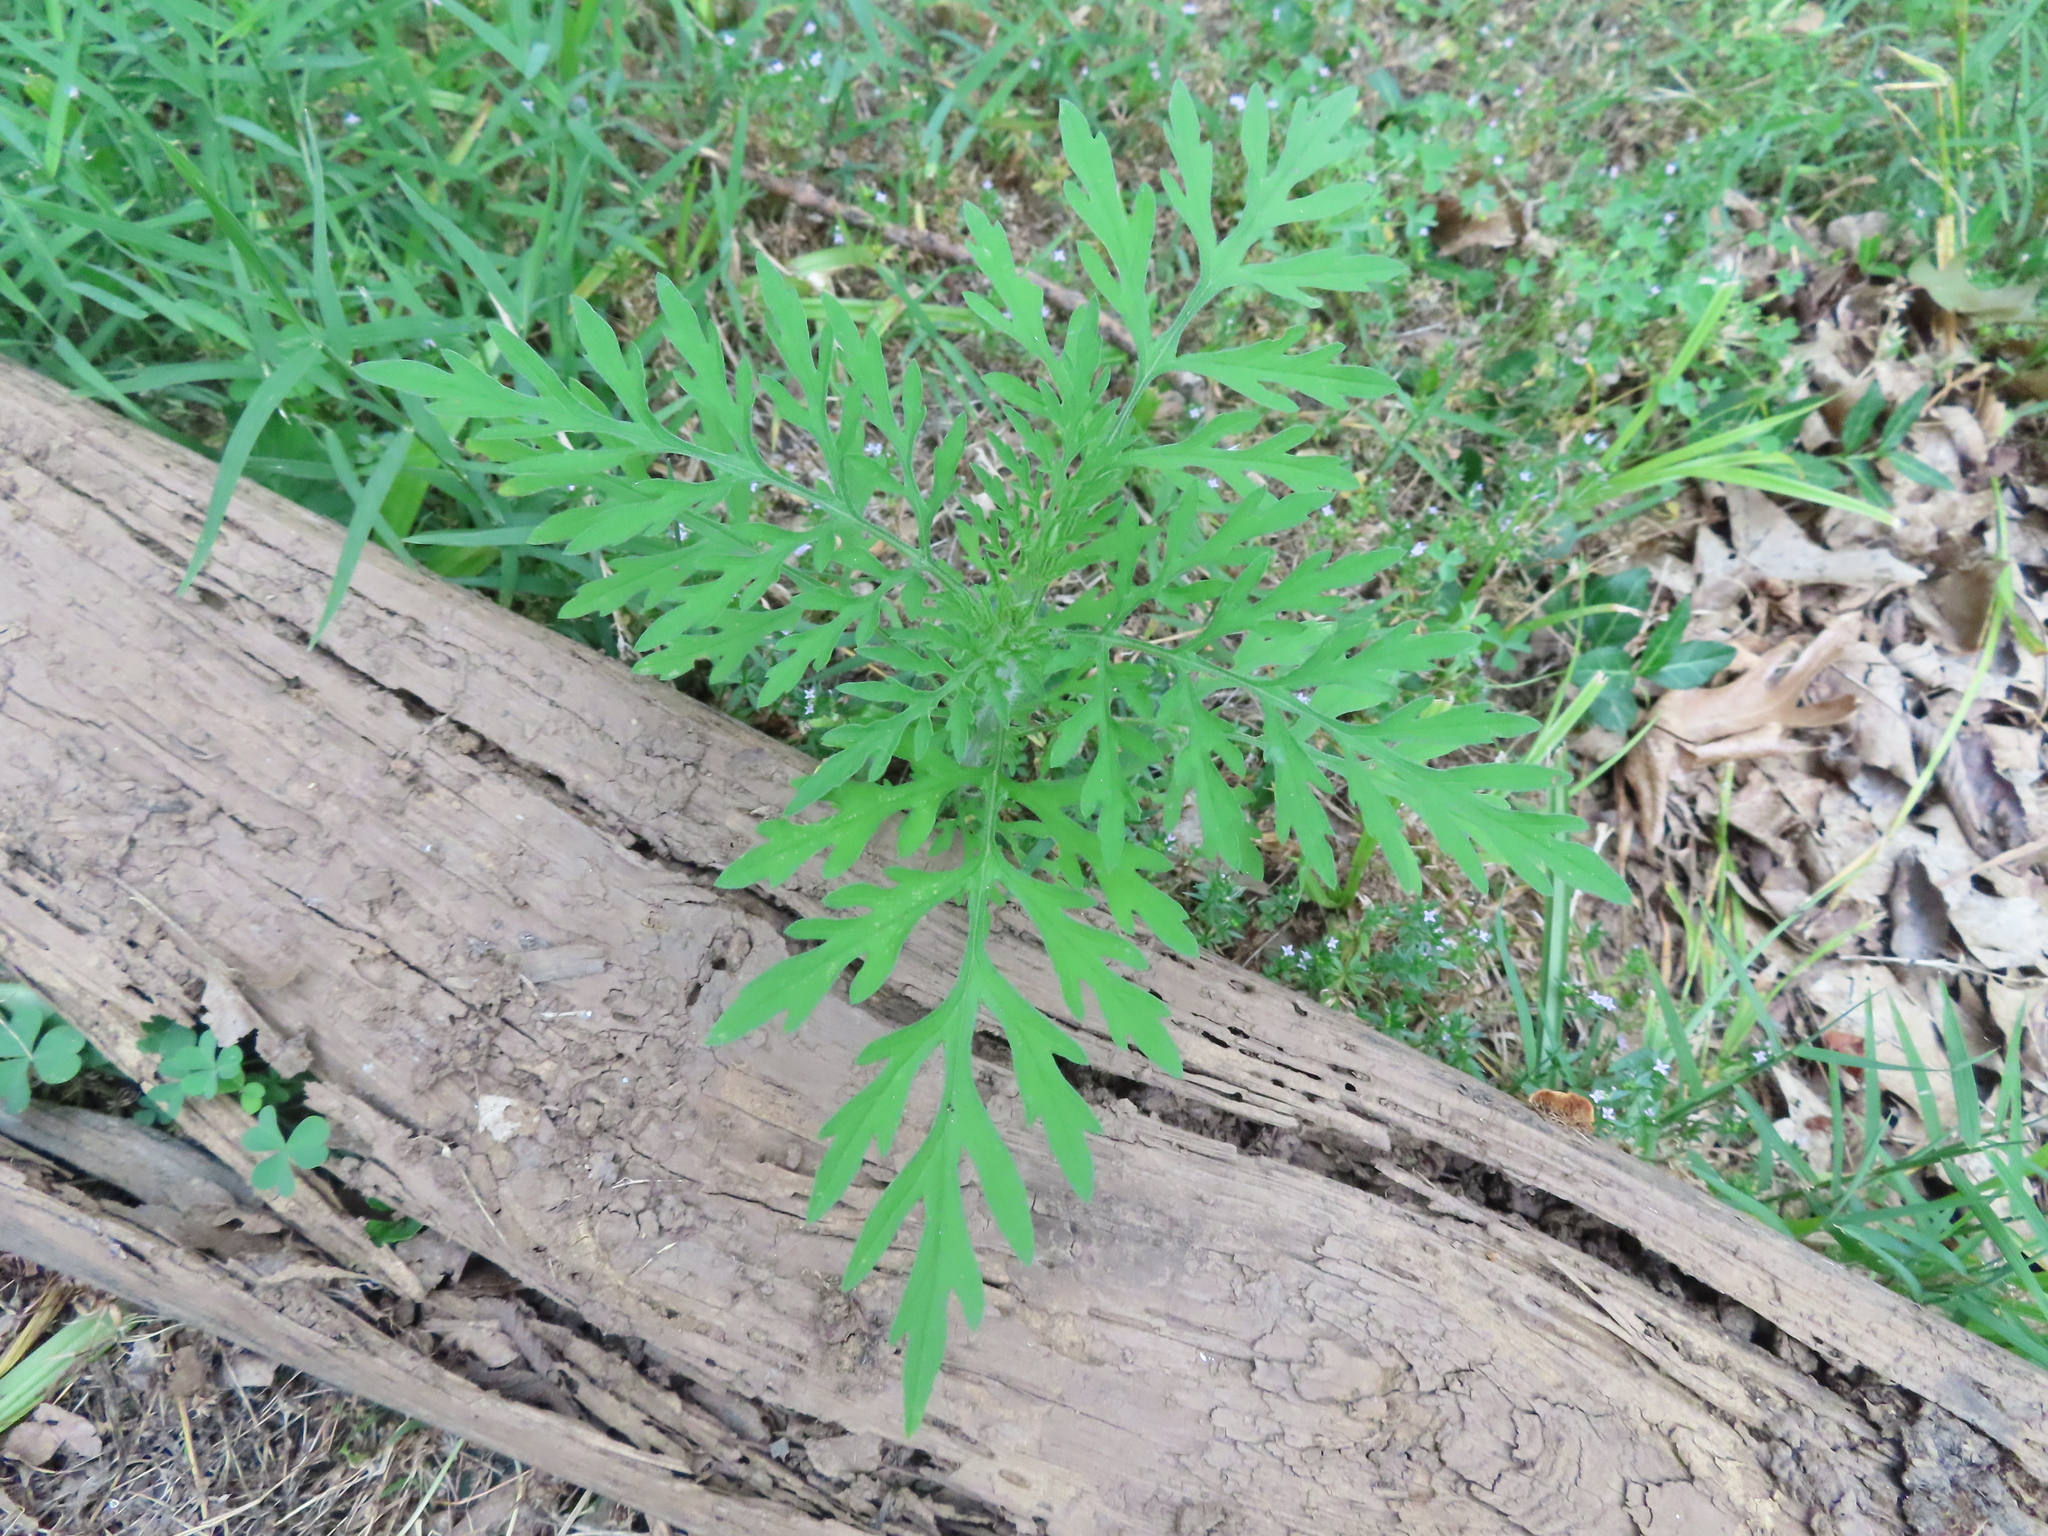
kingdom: Plantae
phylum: Tracheophyta
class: Magnoliopsida
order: Asterales
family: Asteraceae
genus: Ambrosia
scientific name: Ambrosia artemisiifolia
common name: Annual ragweed
